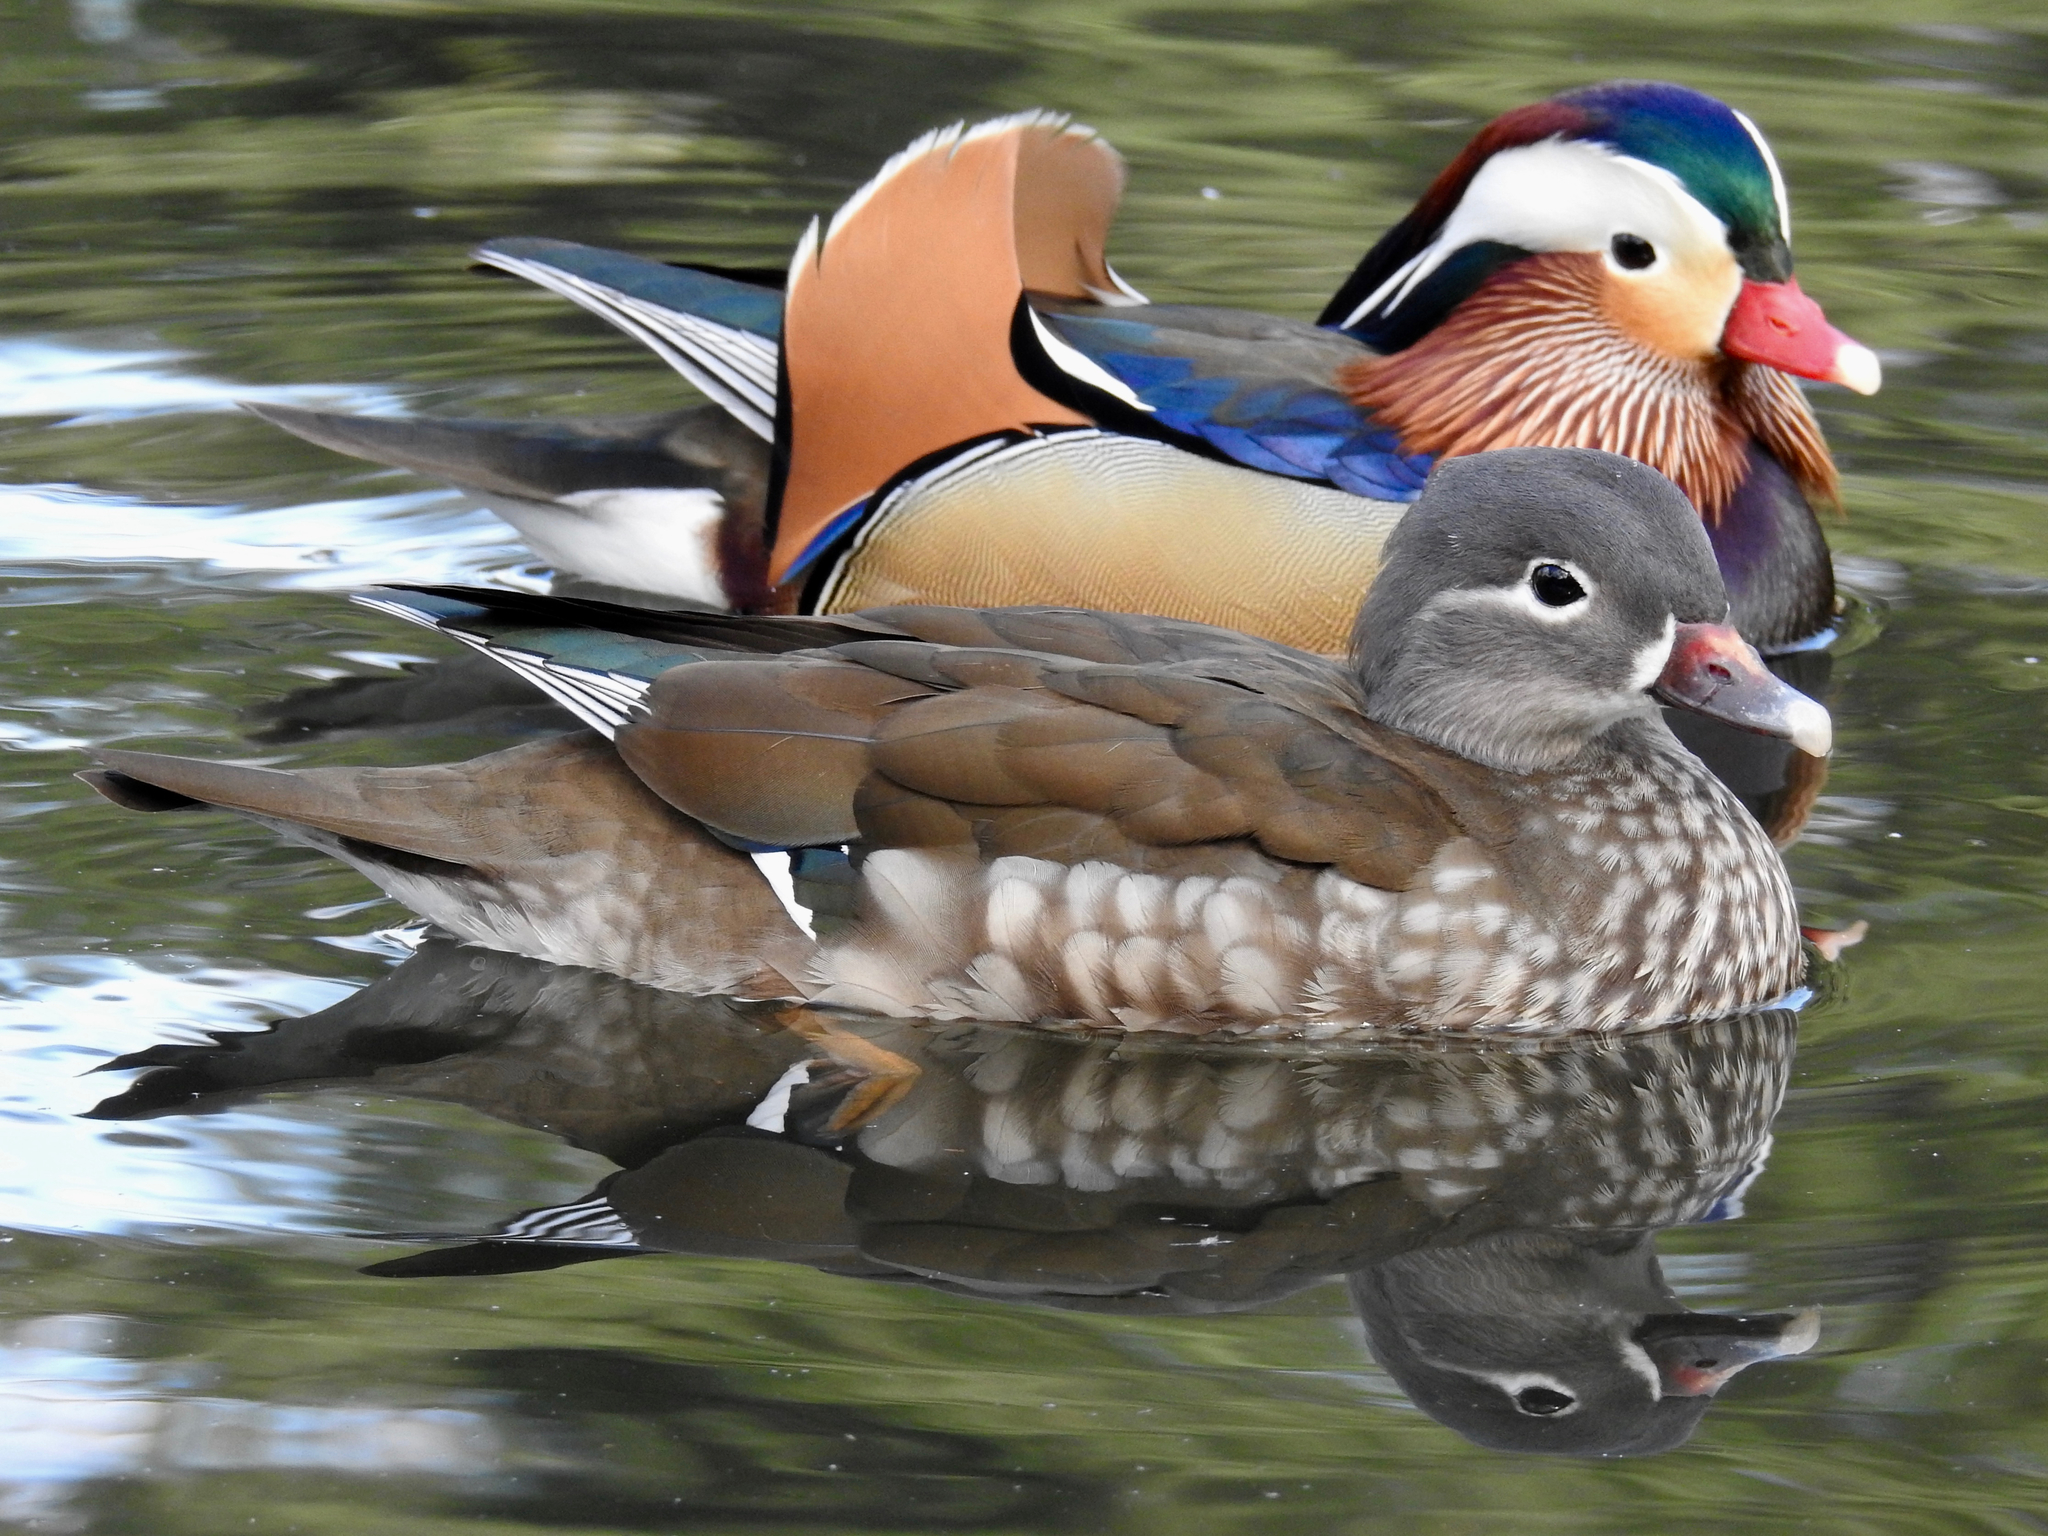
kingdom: Animalia
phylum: Chordata
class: Aves
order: Anseriformes
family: Anatidae
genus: Aix
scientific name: Aix galericulata
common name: Mandarin duck
